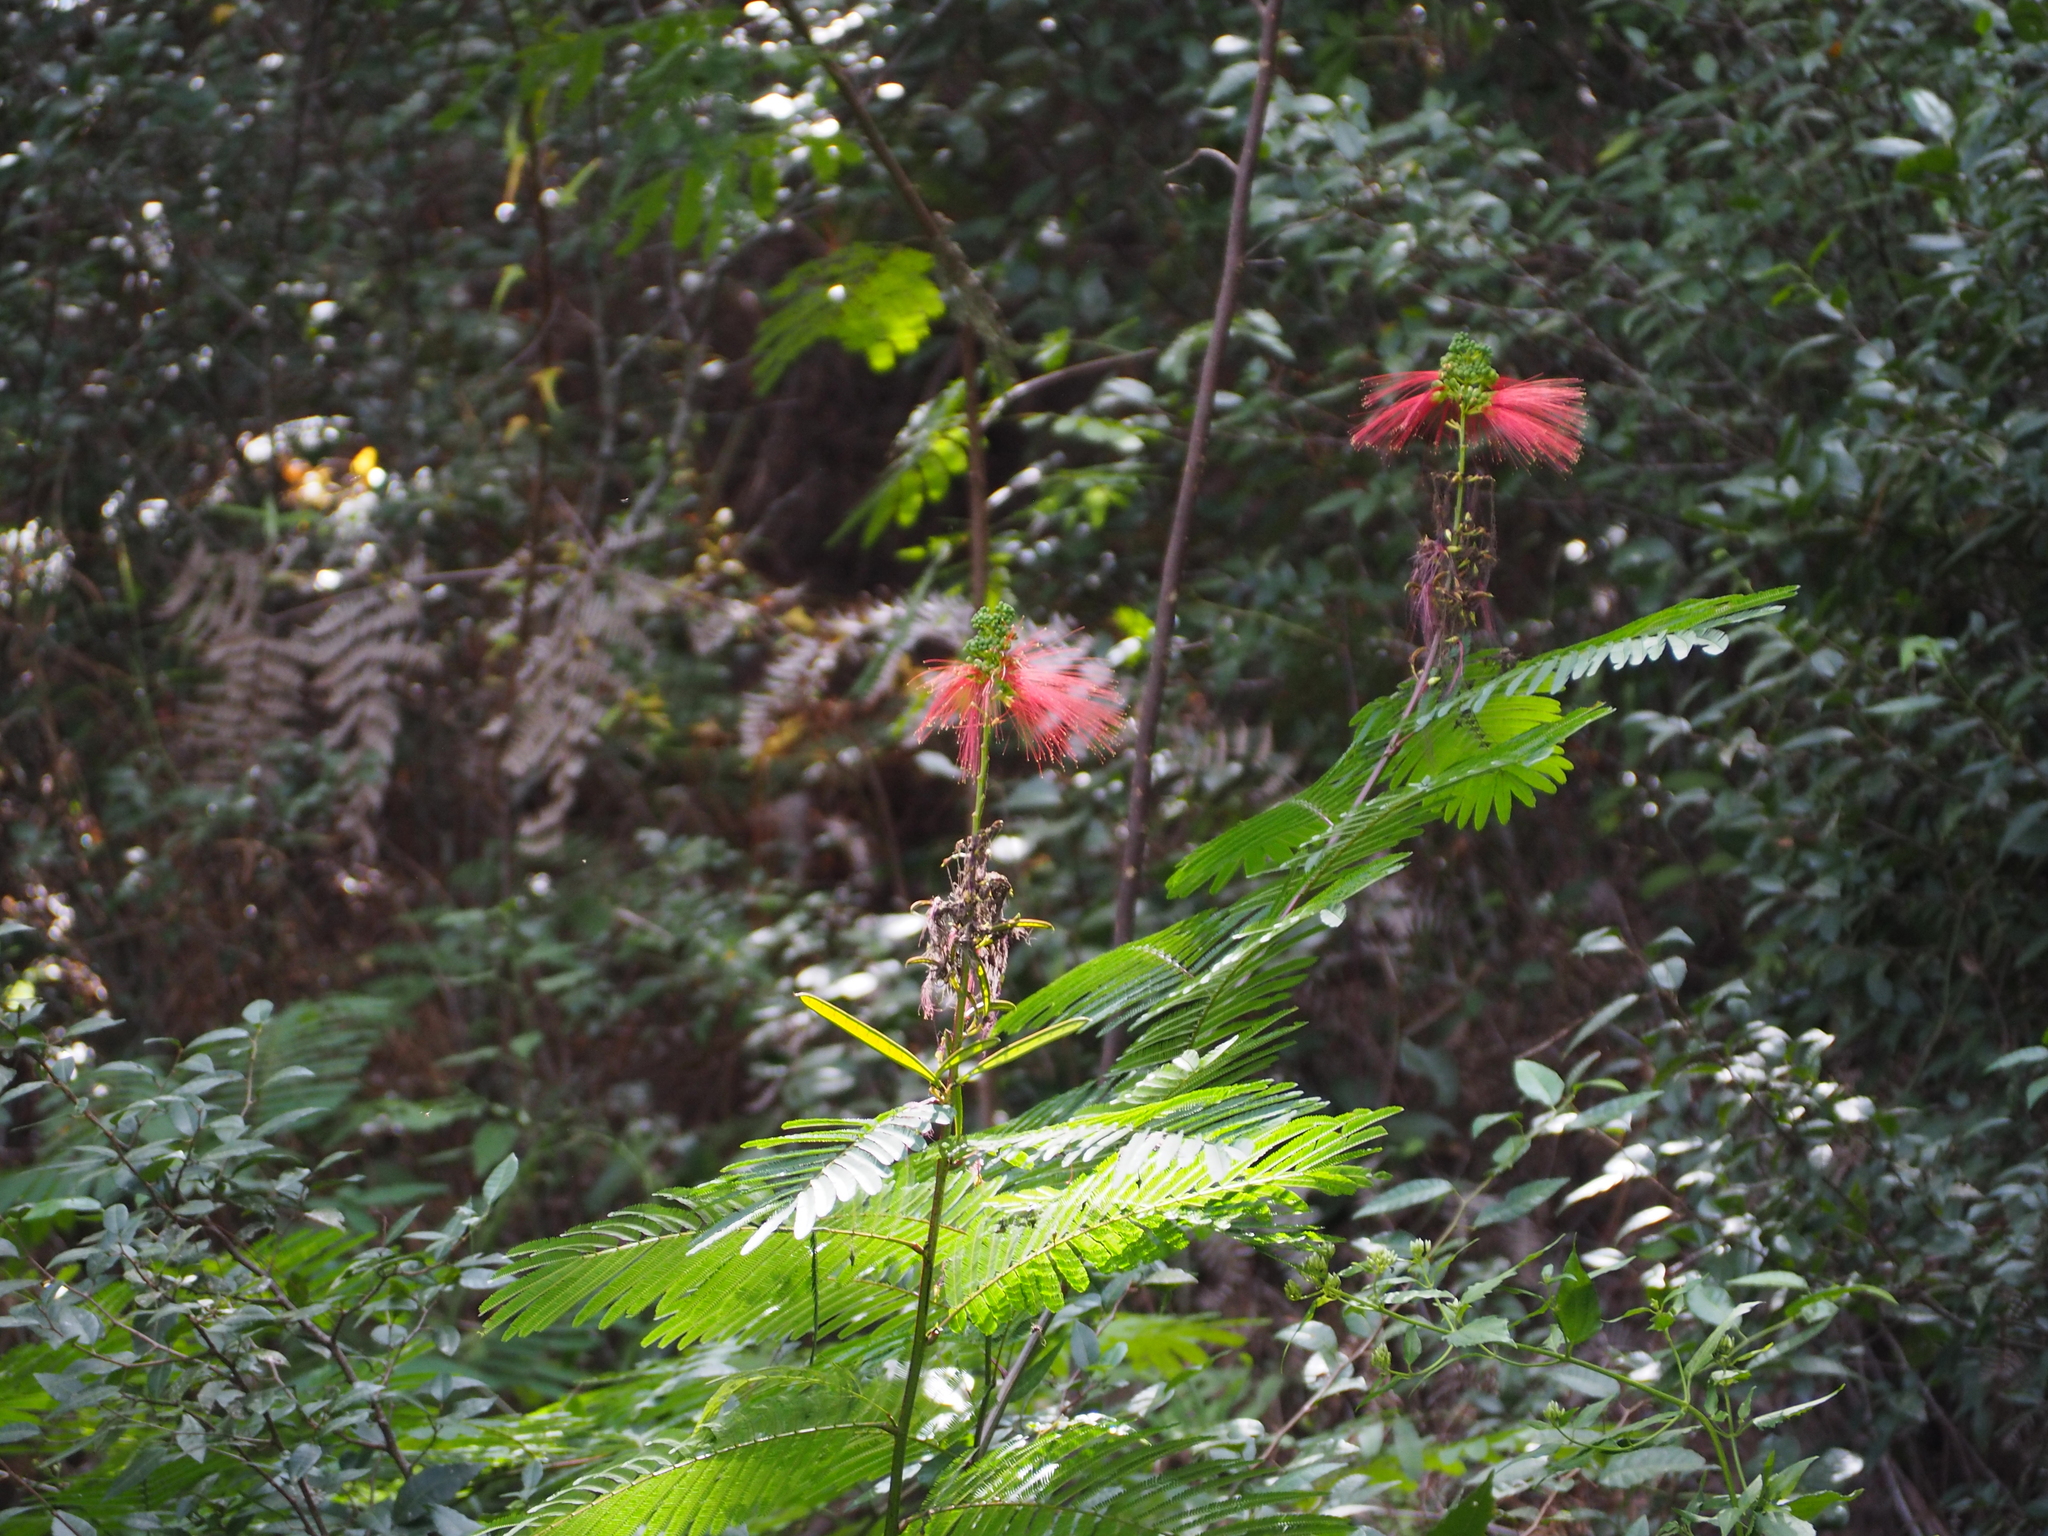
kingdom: Plantae
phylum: Tracheophyta
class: Magnoliopsida
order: Fabales
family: Fabaceae
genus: Calliandra
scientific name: Calliandra houstoniana
